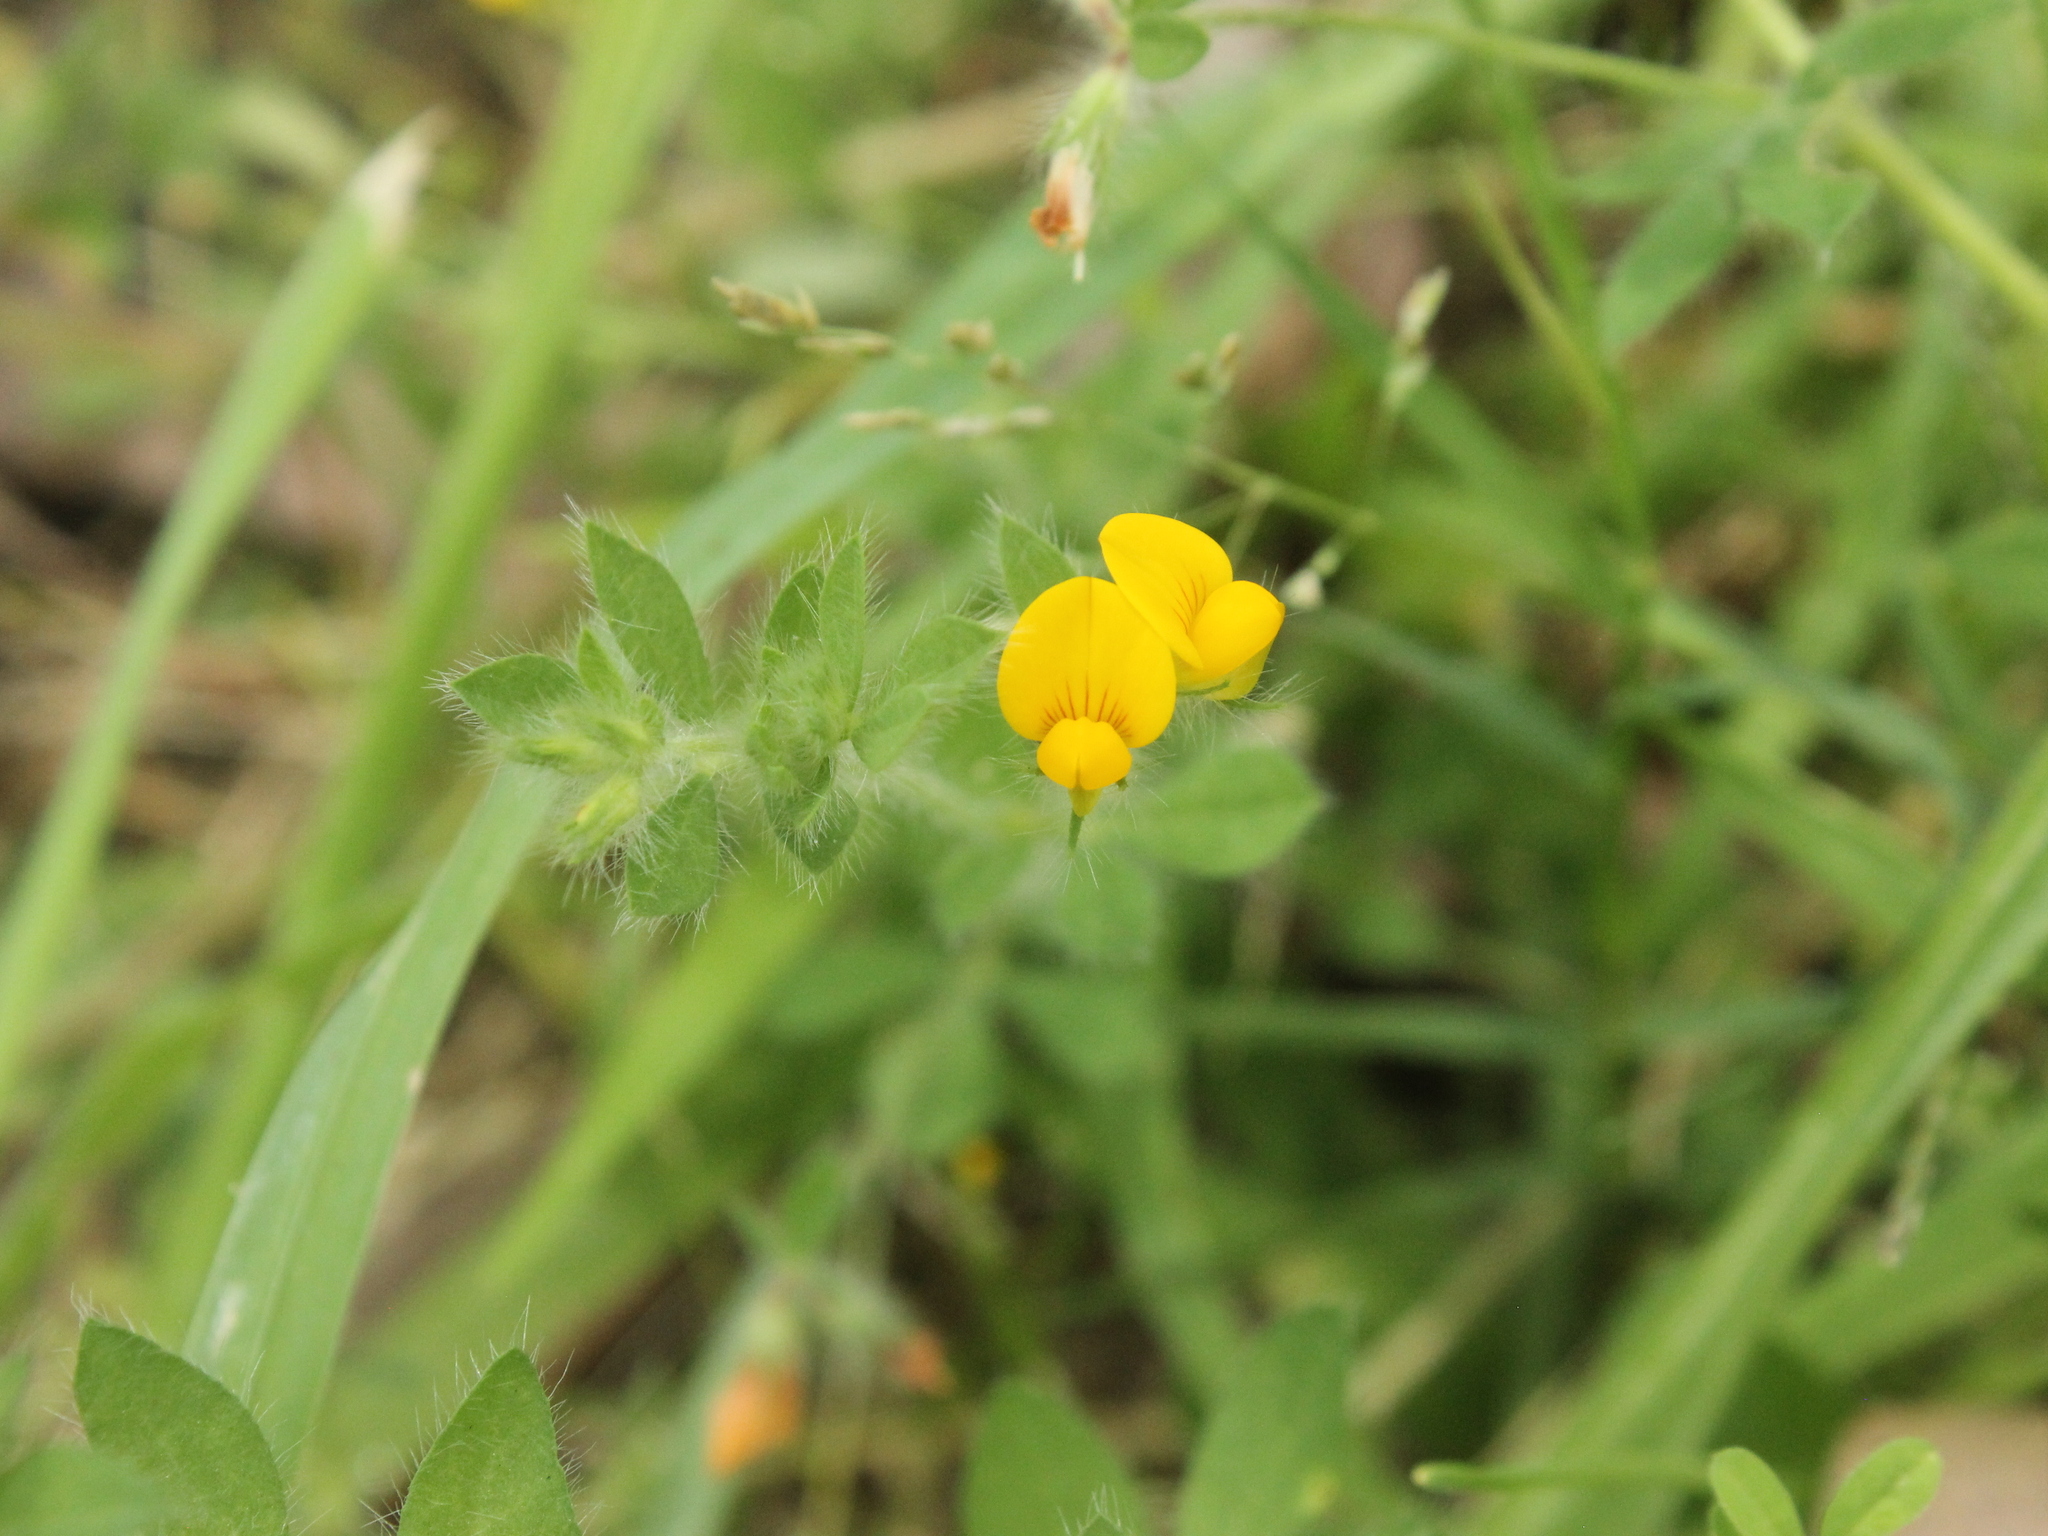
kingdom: Plantae
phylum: Tracheophyta
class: Magnoliopsida
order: Fabales
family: Fabaceae
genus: Lotus
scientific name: Lotus subbiflorus
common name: Hairy bird's-foot trefoil
